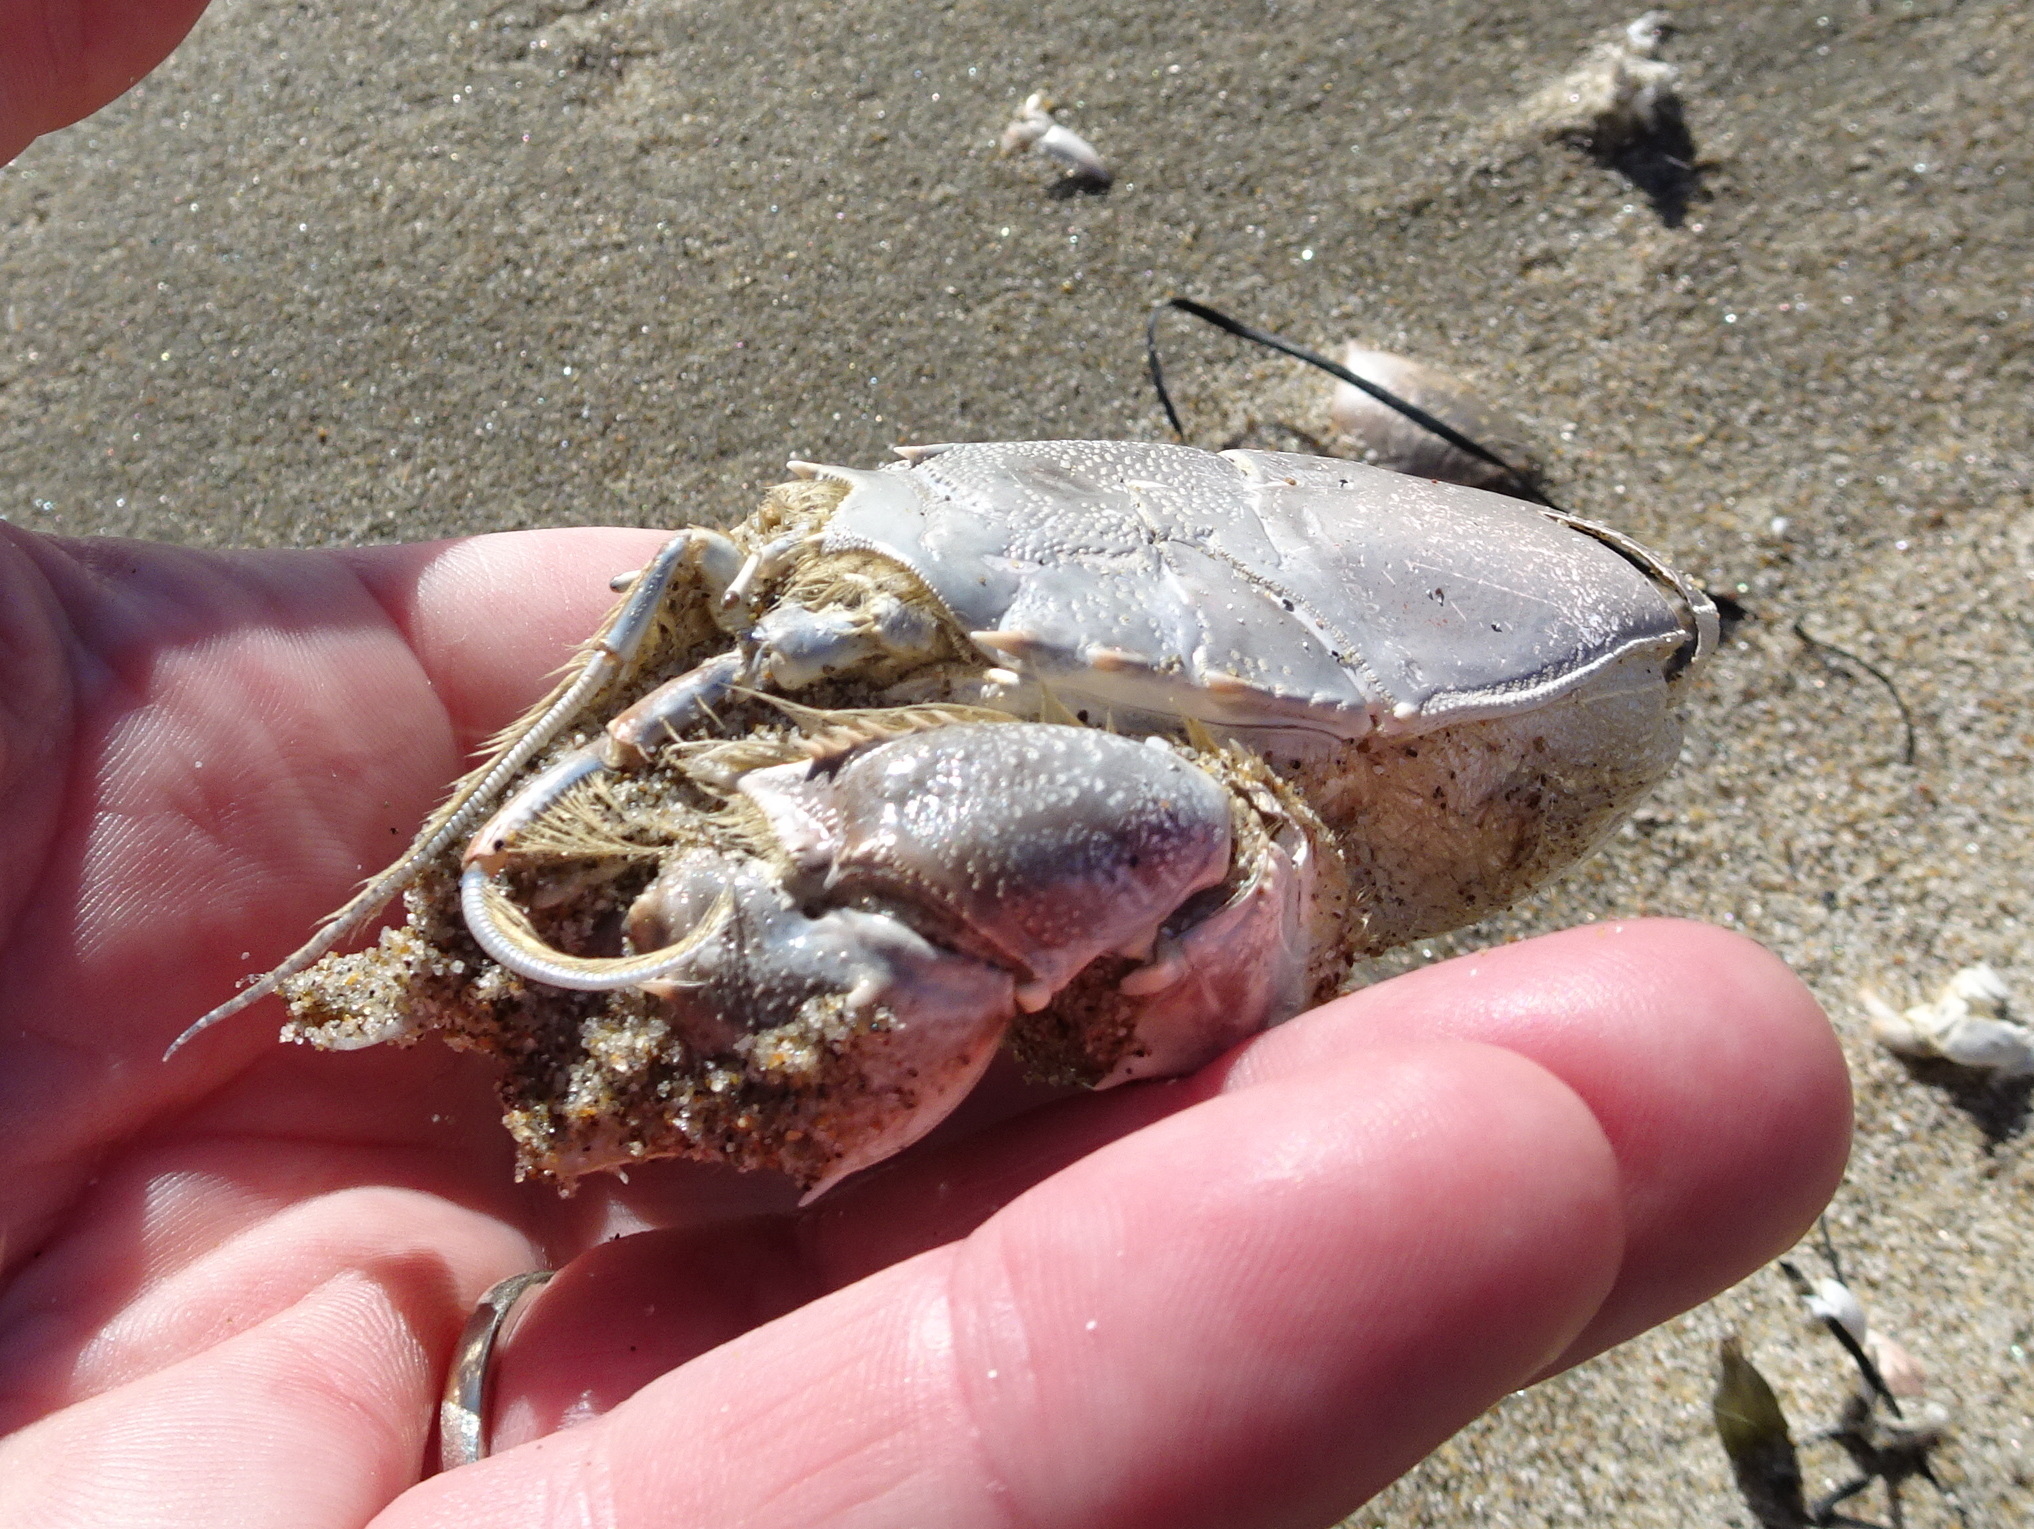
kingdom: Animalia
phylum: Arthropoda
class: Malacostraca
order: Decapoda
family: Blepharipodidae
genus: Blepharipoda
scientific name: Blepharipoda occidentalis
